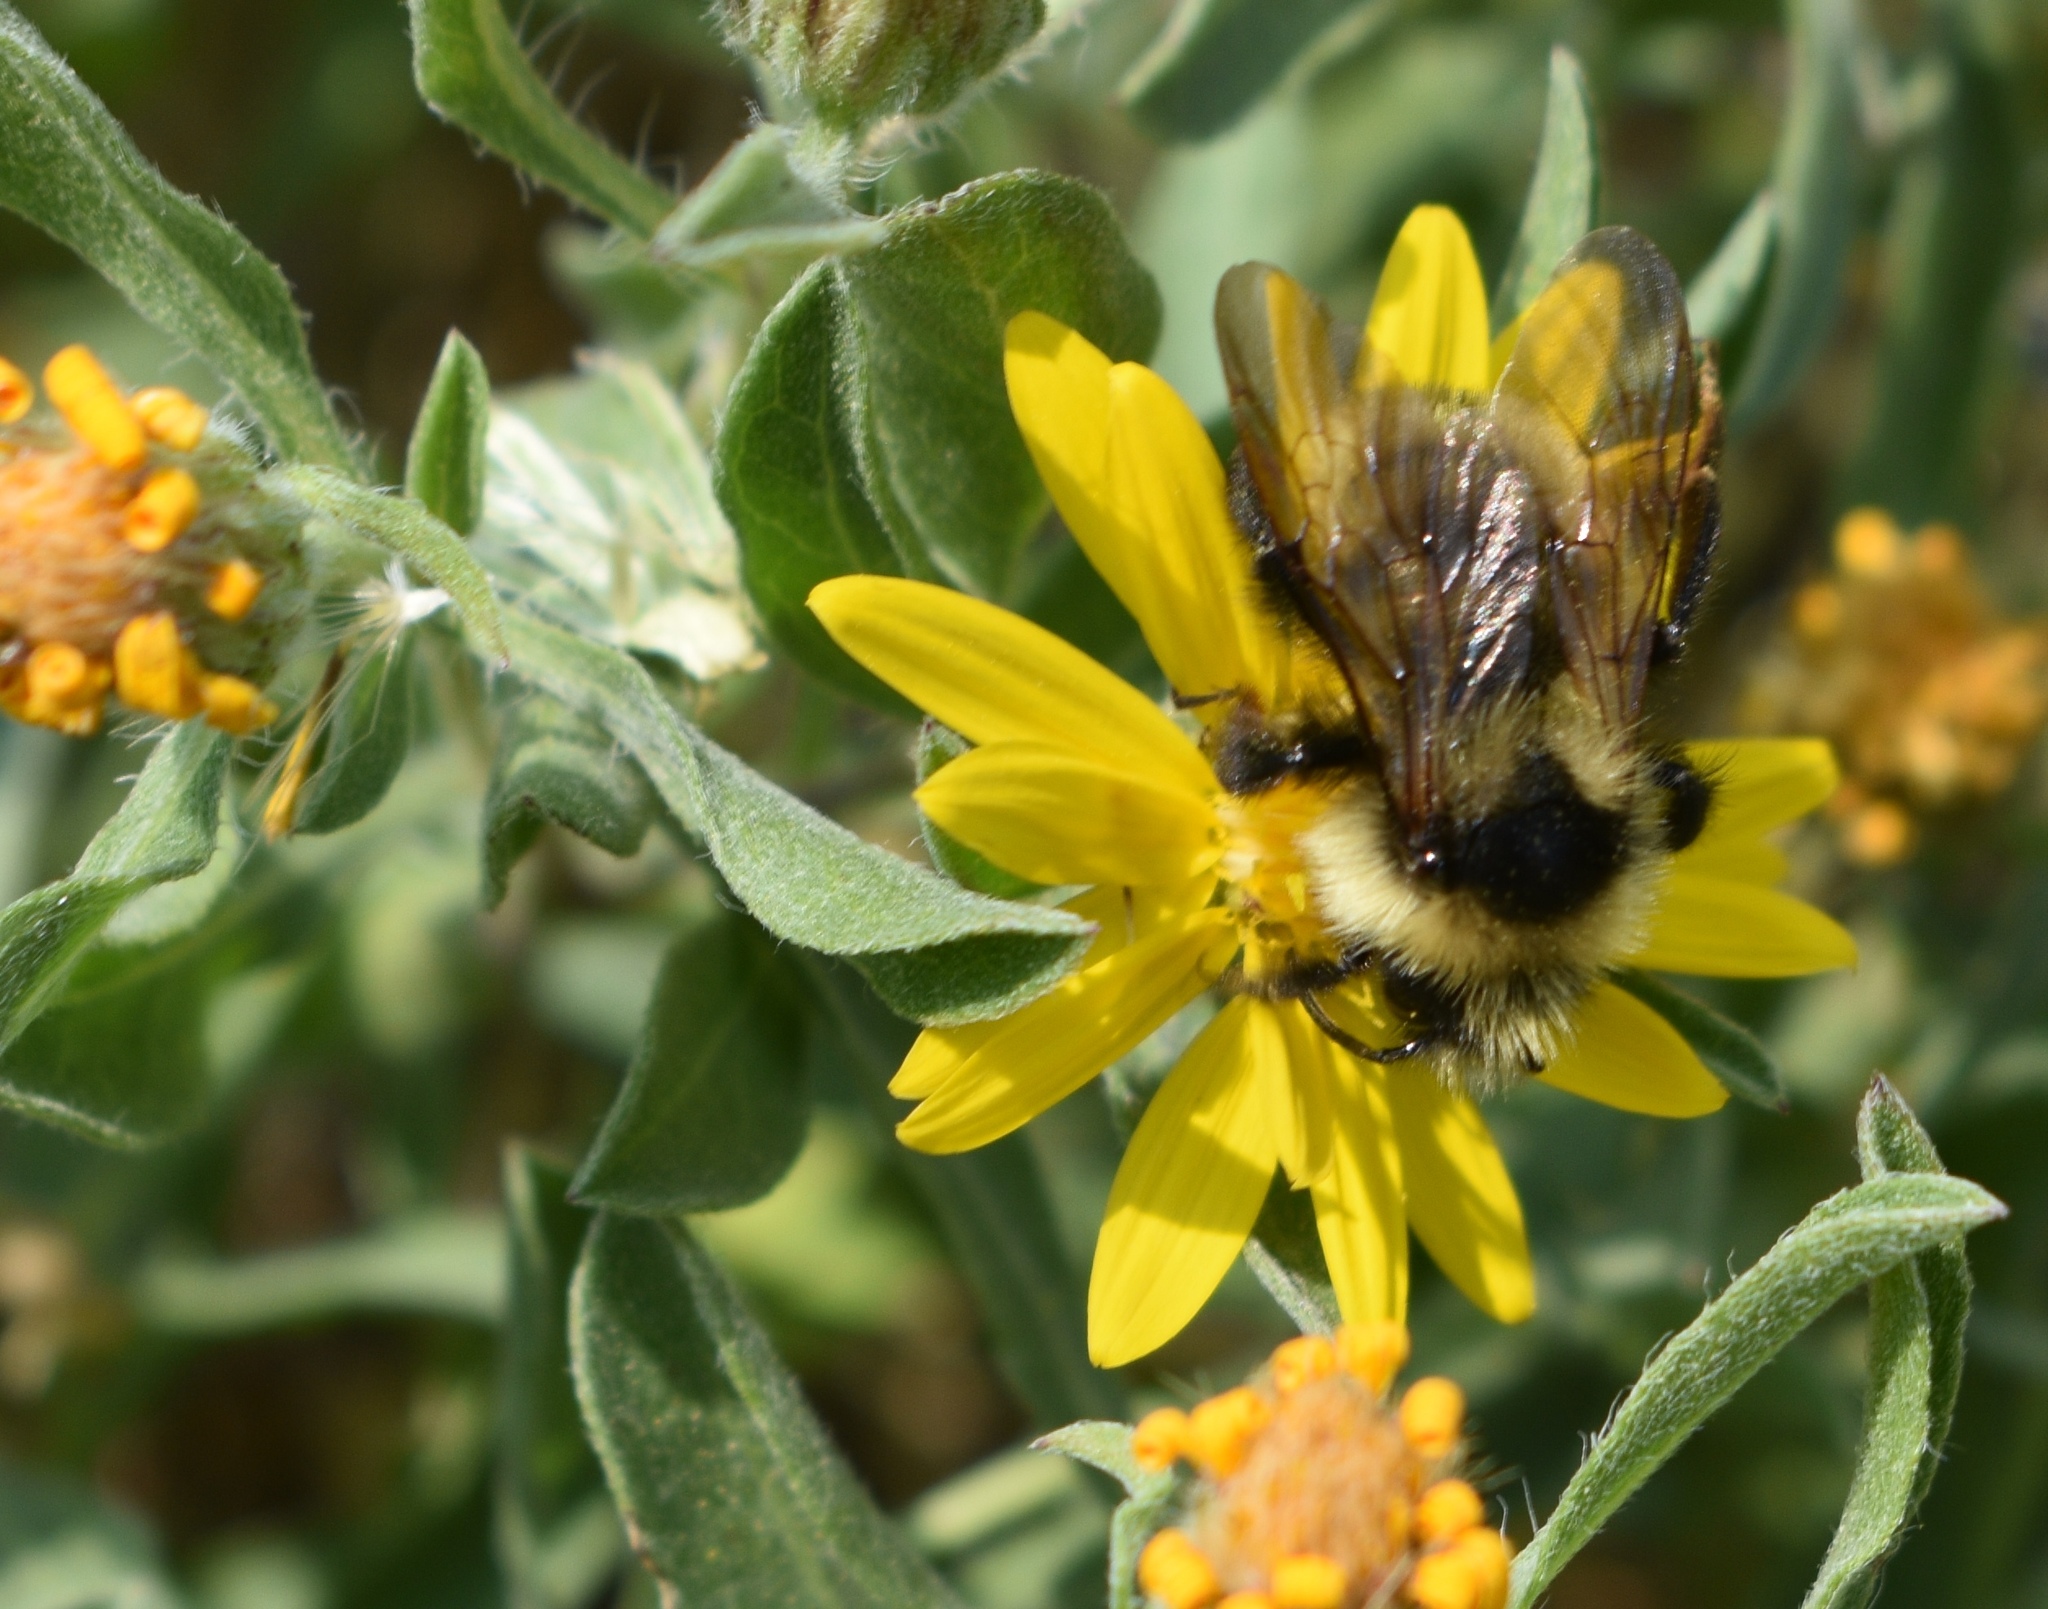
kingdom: Animalia
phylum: Arthropoda
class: Insecta
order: Hymenoptera
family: Apidae
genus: Bombus
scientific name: Bombus insularis
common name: Indiscriminate cuckoo bumble bee
